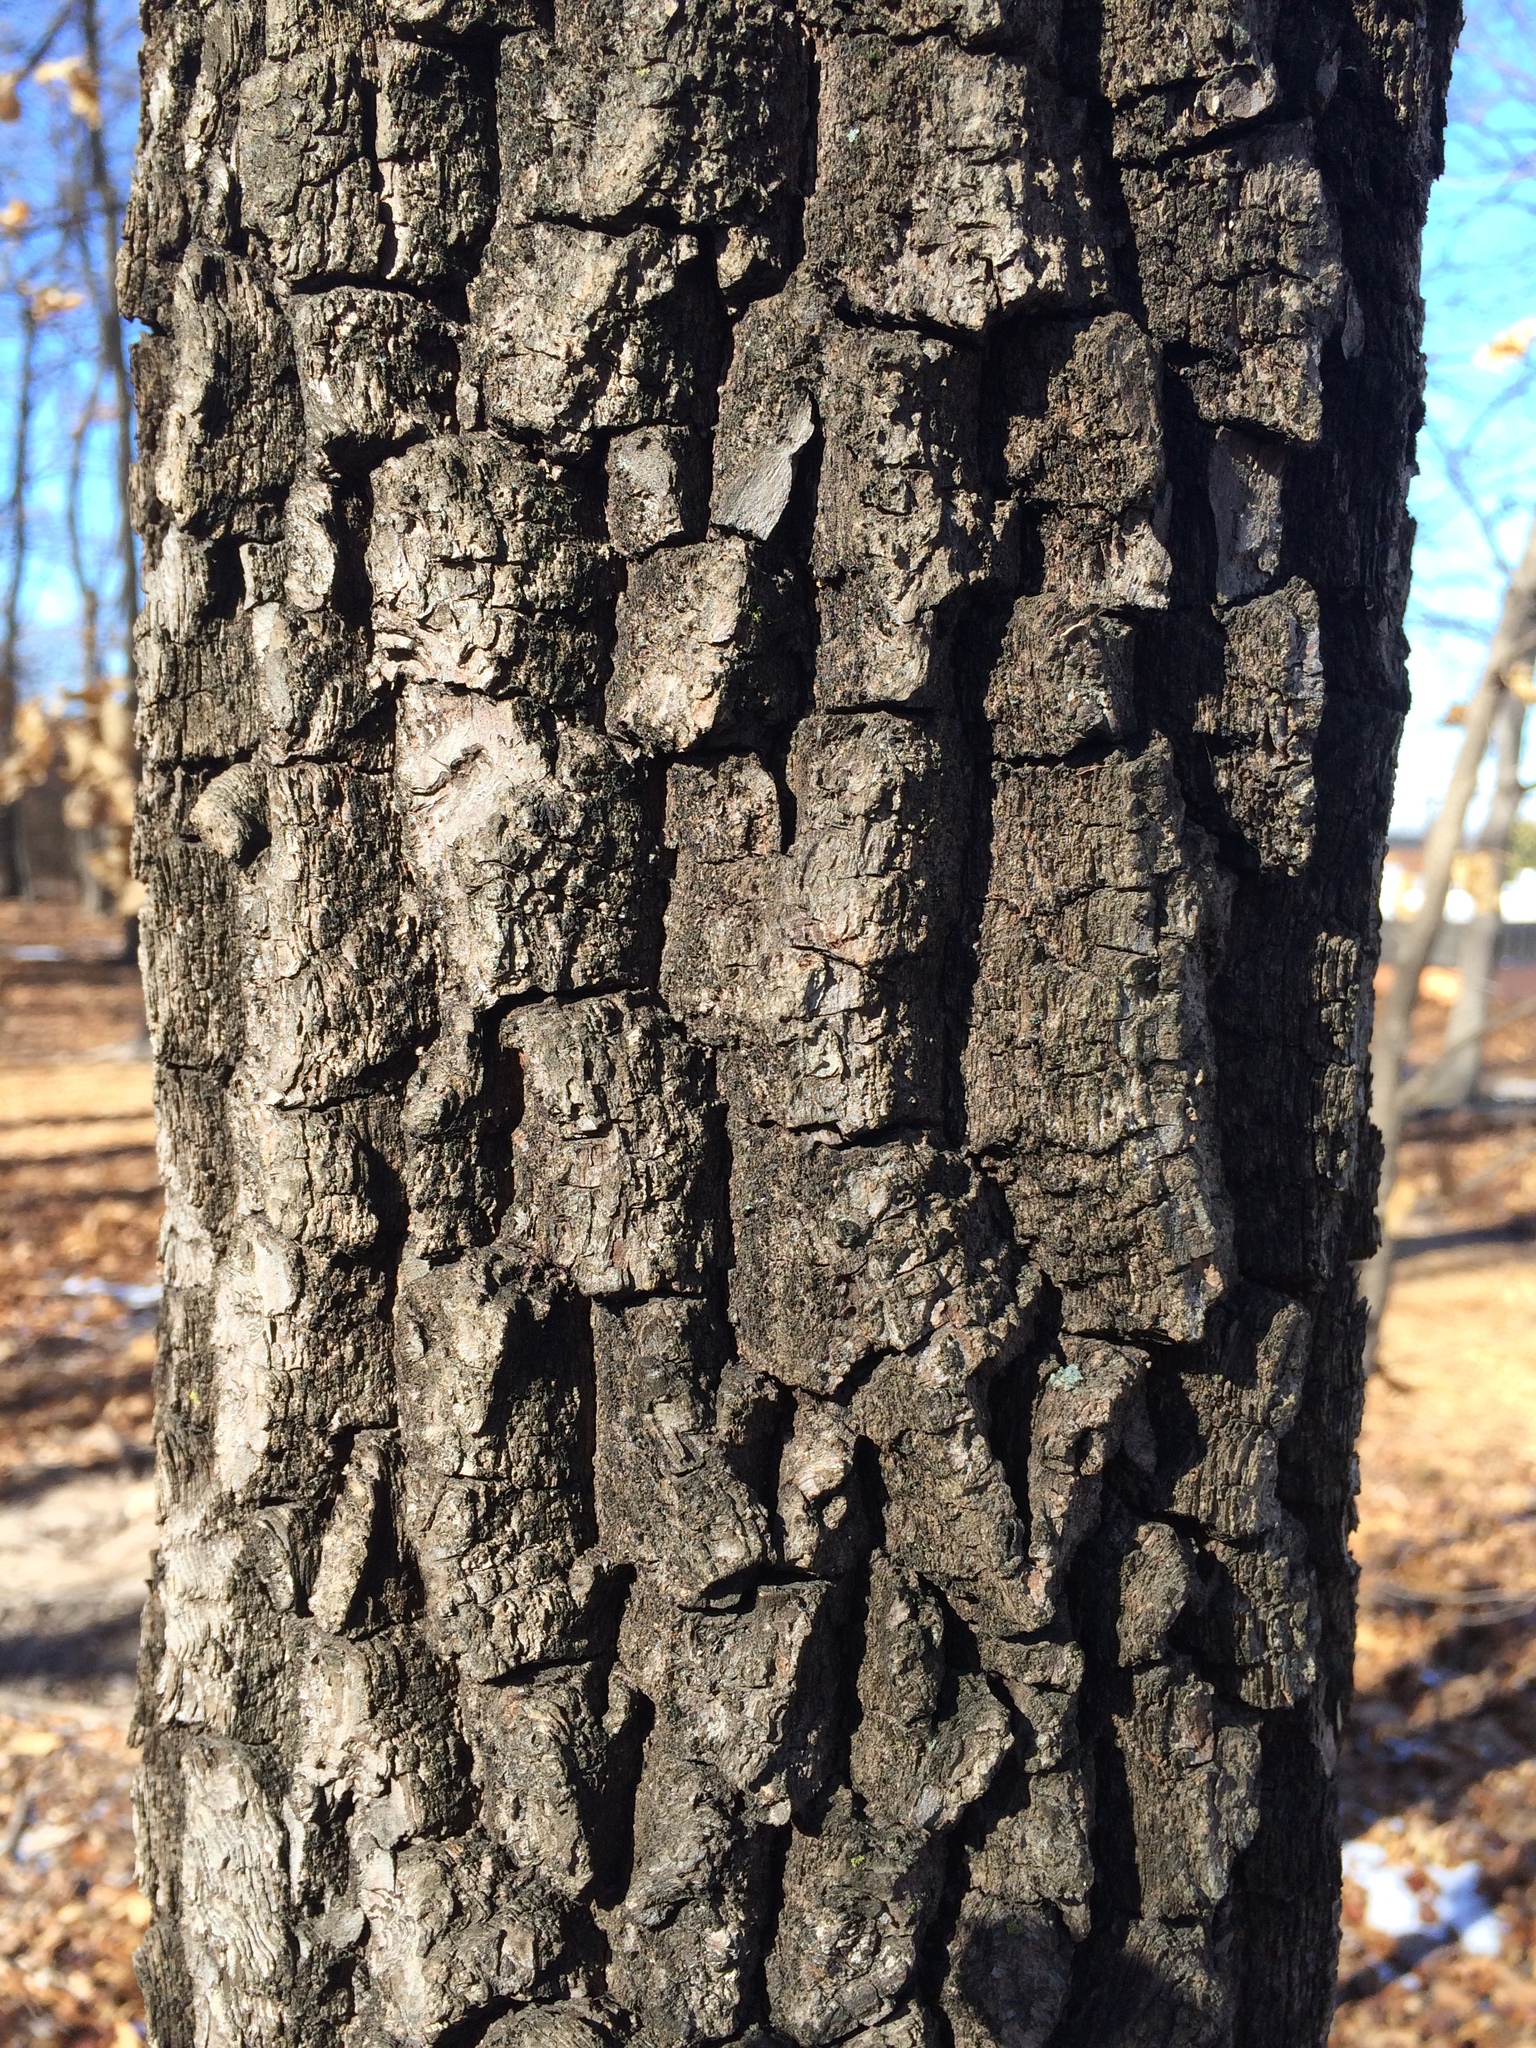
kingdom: Plantae
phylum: Tracheophyta
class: Magnoliopsida
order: Ericales
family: Ebenaceae
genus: Diospyros
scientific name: Diospyros virginiana
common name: Persimmon
